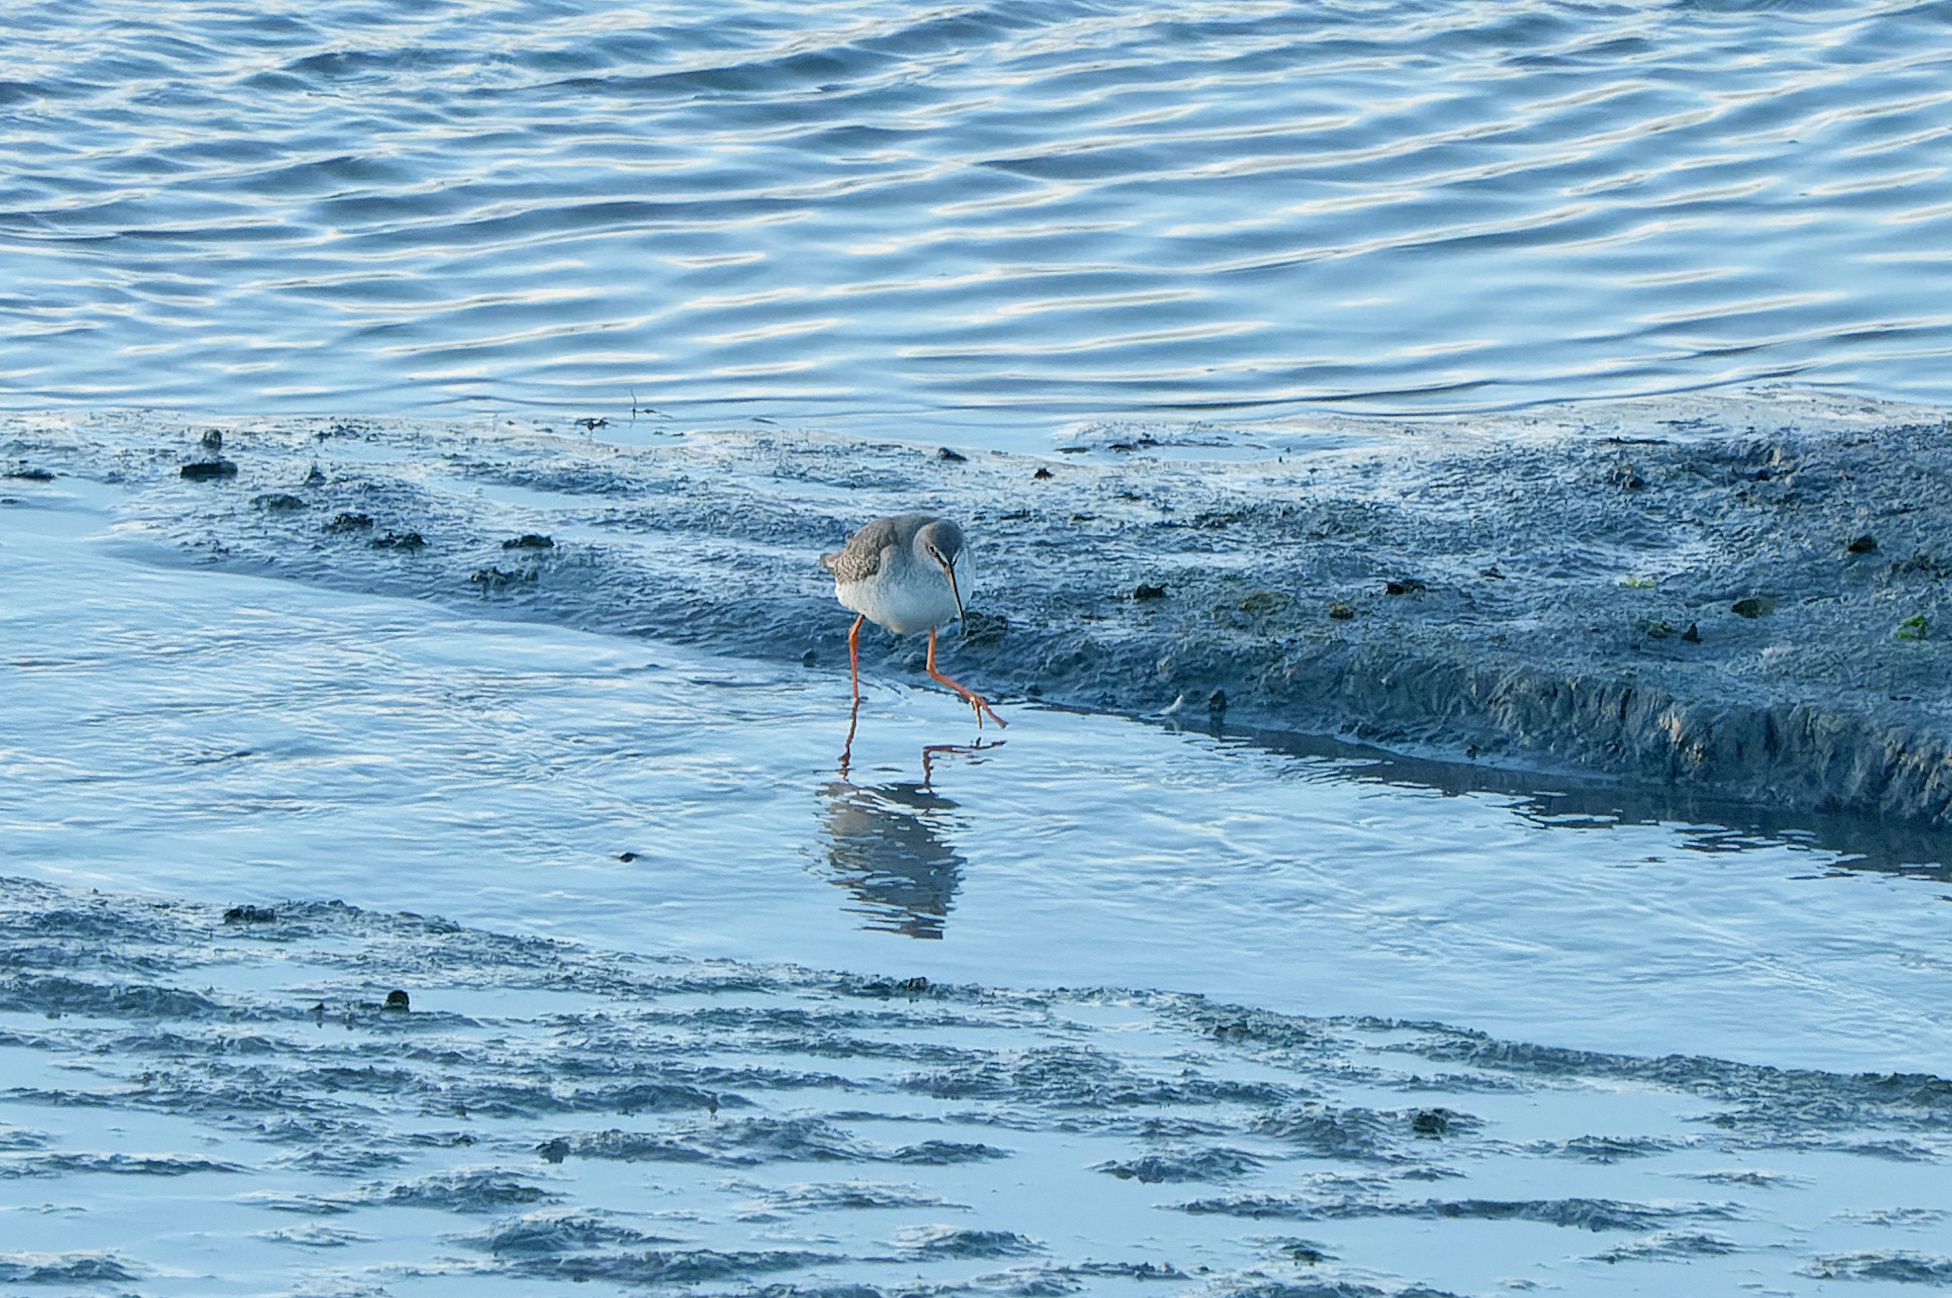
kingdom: Animalia
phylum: Chordata
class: Aves
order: Charadriiformes
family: Scolopacidae
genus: Tringa
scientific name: Tringa erythropus
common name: Spotted redshank
